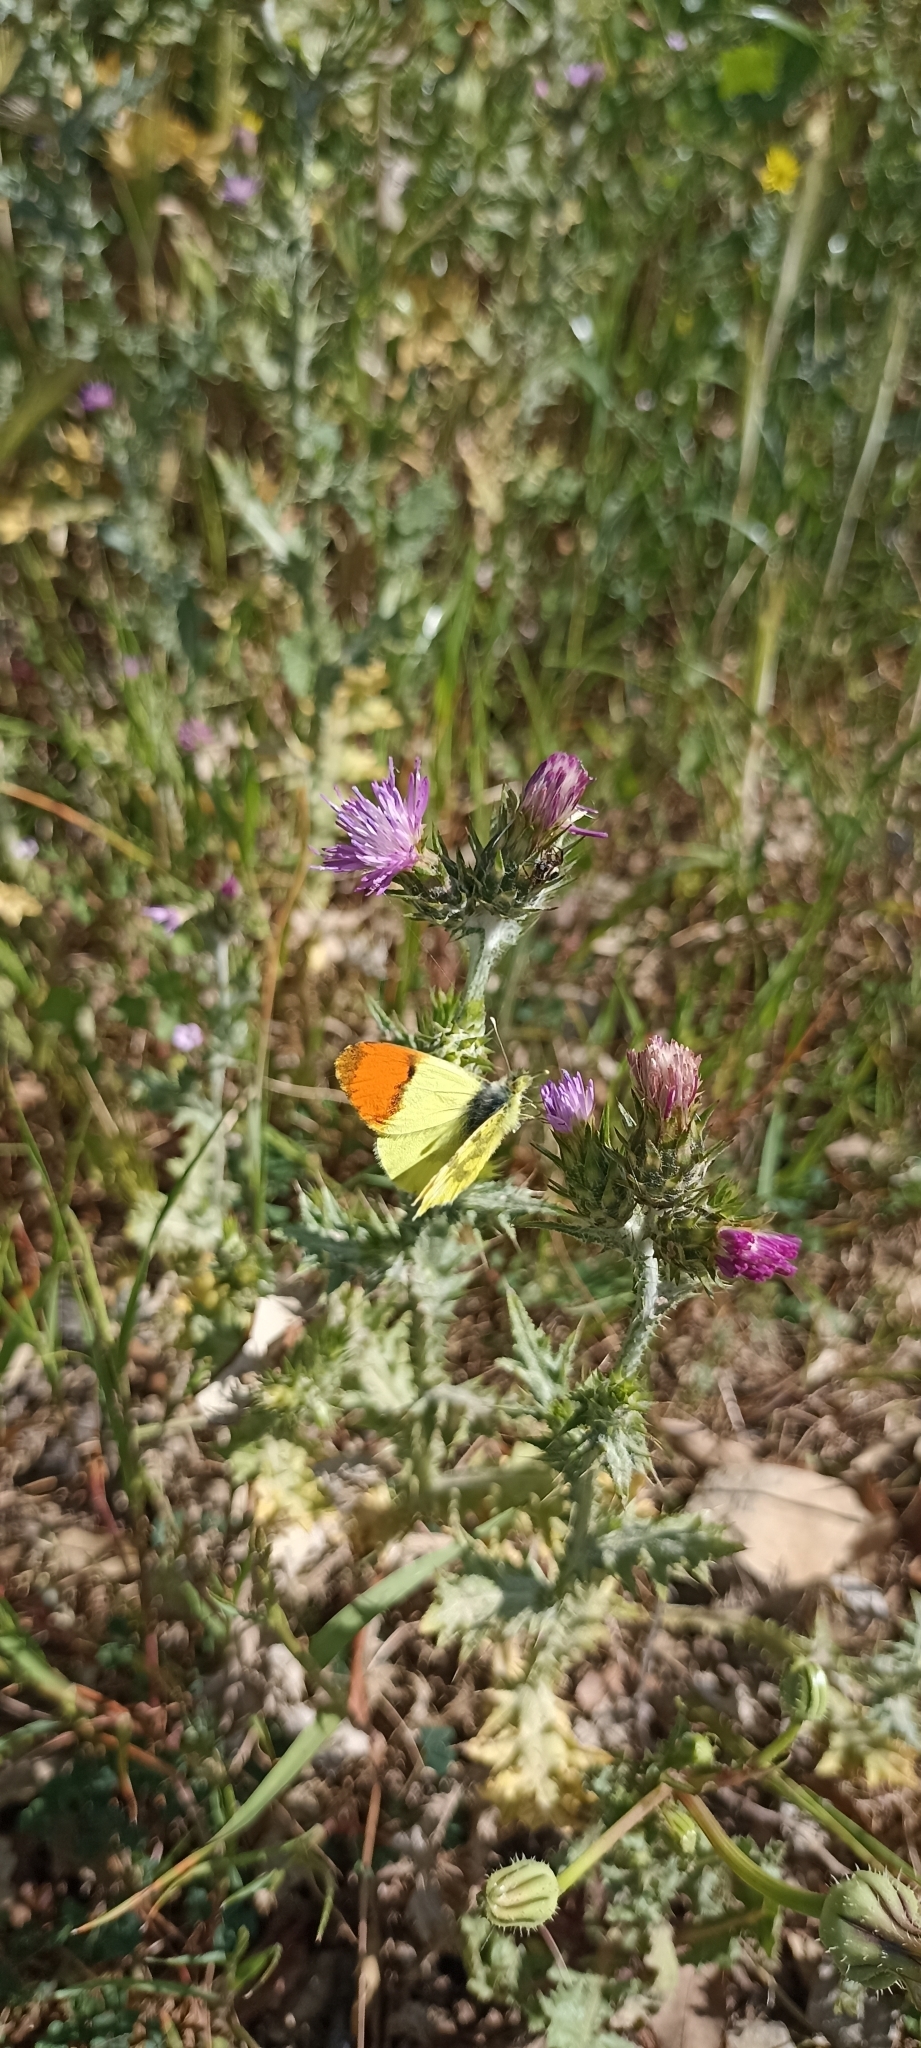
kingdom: Animalia
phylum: Arthropoda
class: Insecta
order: Lepidoptera
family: Pieridae
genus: Anthocharis
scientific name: Anthocharis euphenoides
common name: Provence orange-tip
